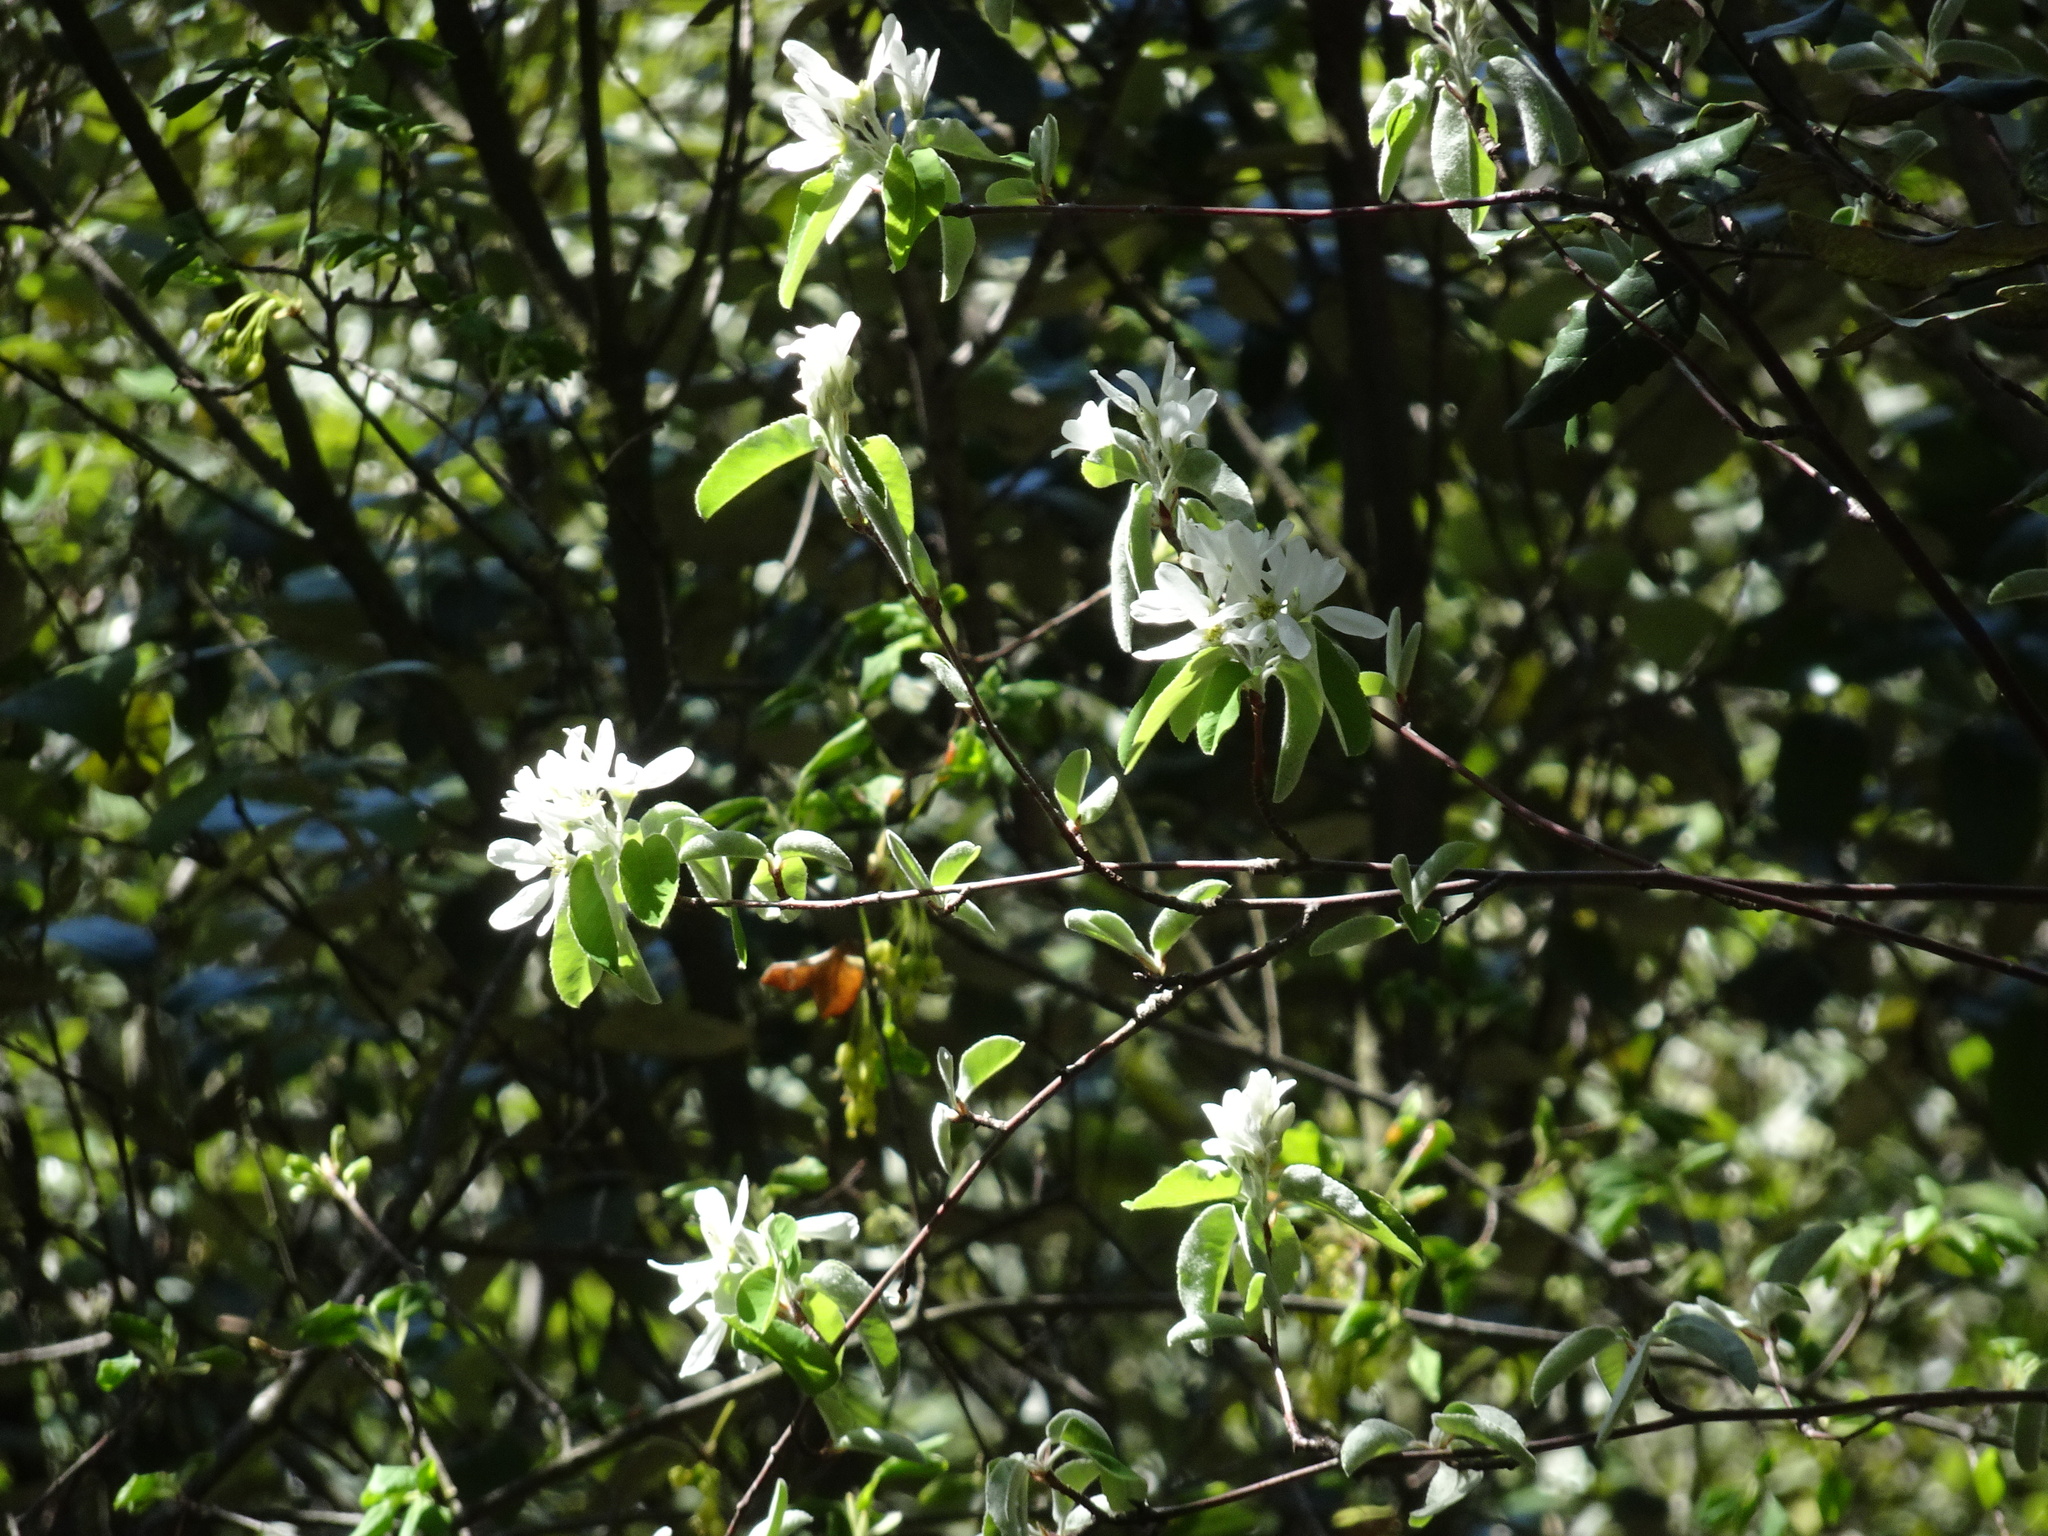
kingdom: Plantae
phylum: Tracheophyta
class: Magnoliopsida
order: Rosales
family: Rosaceae
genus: Amelanchier
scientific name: Amelanchier ovalis
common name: Serviceberry
